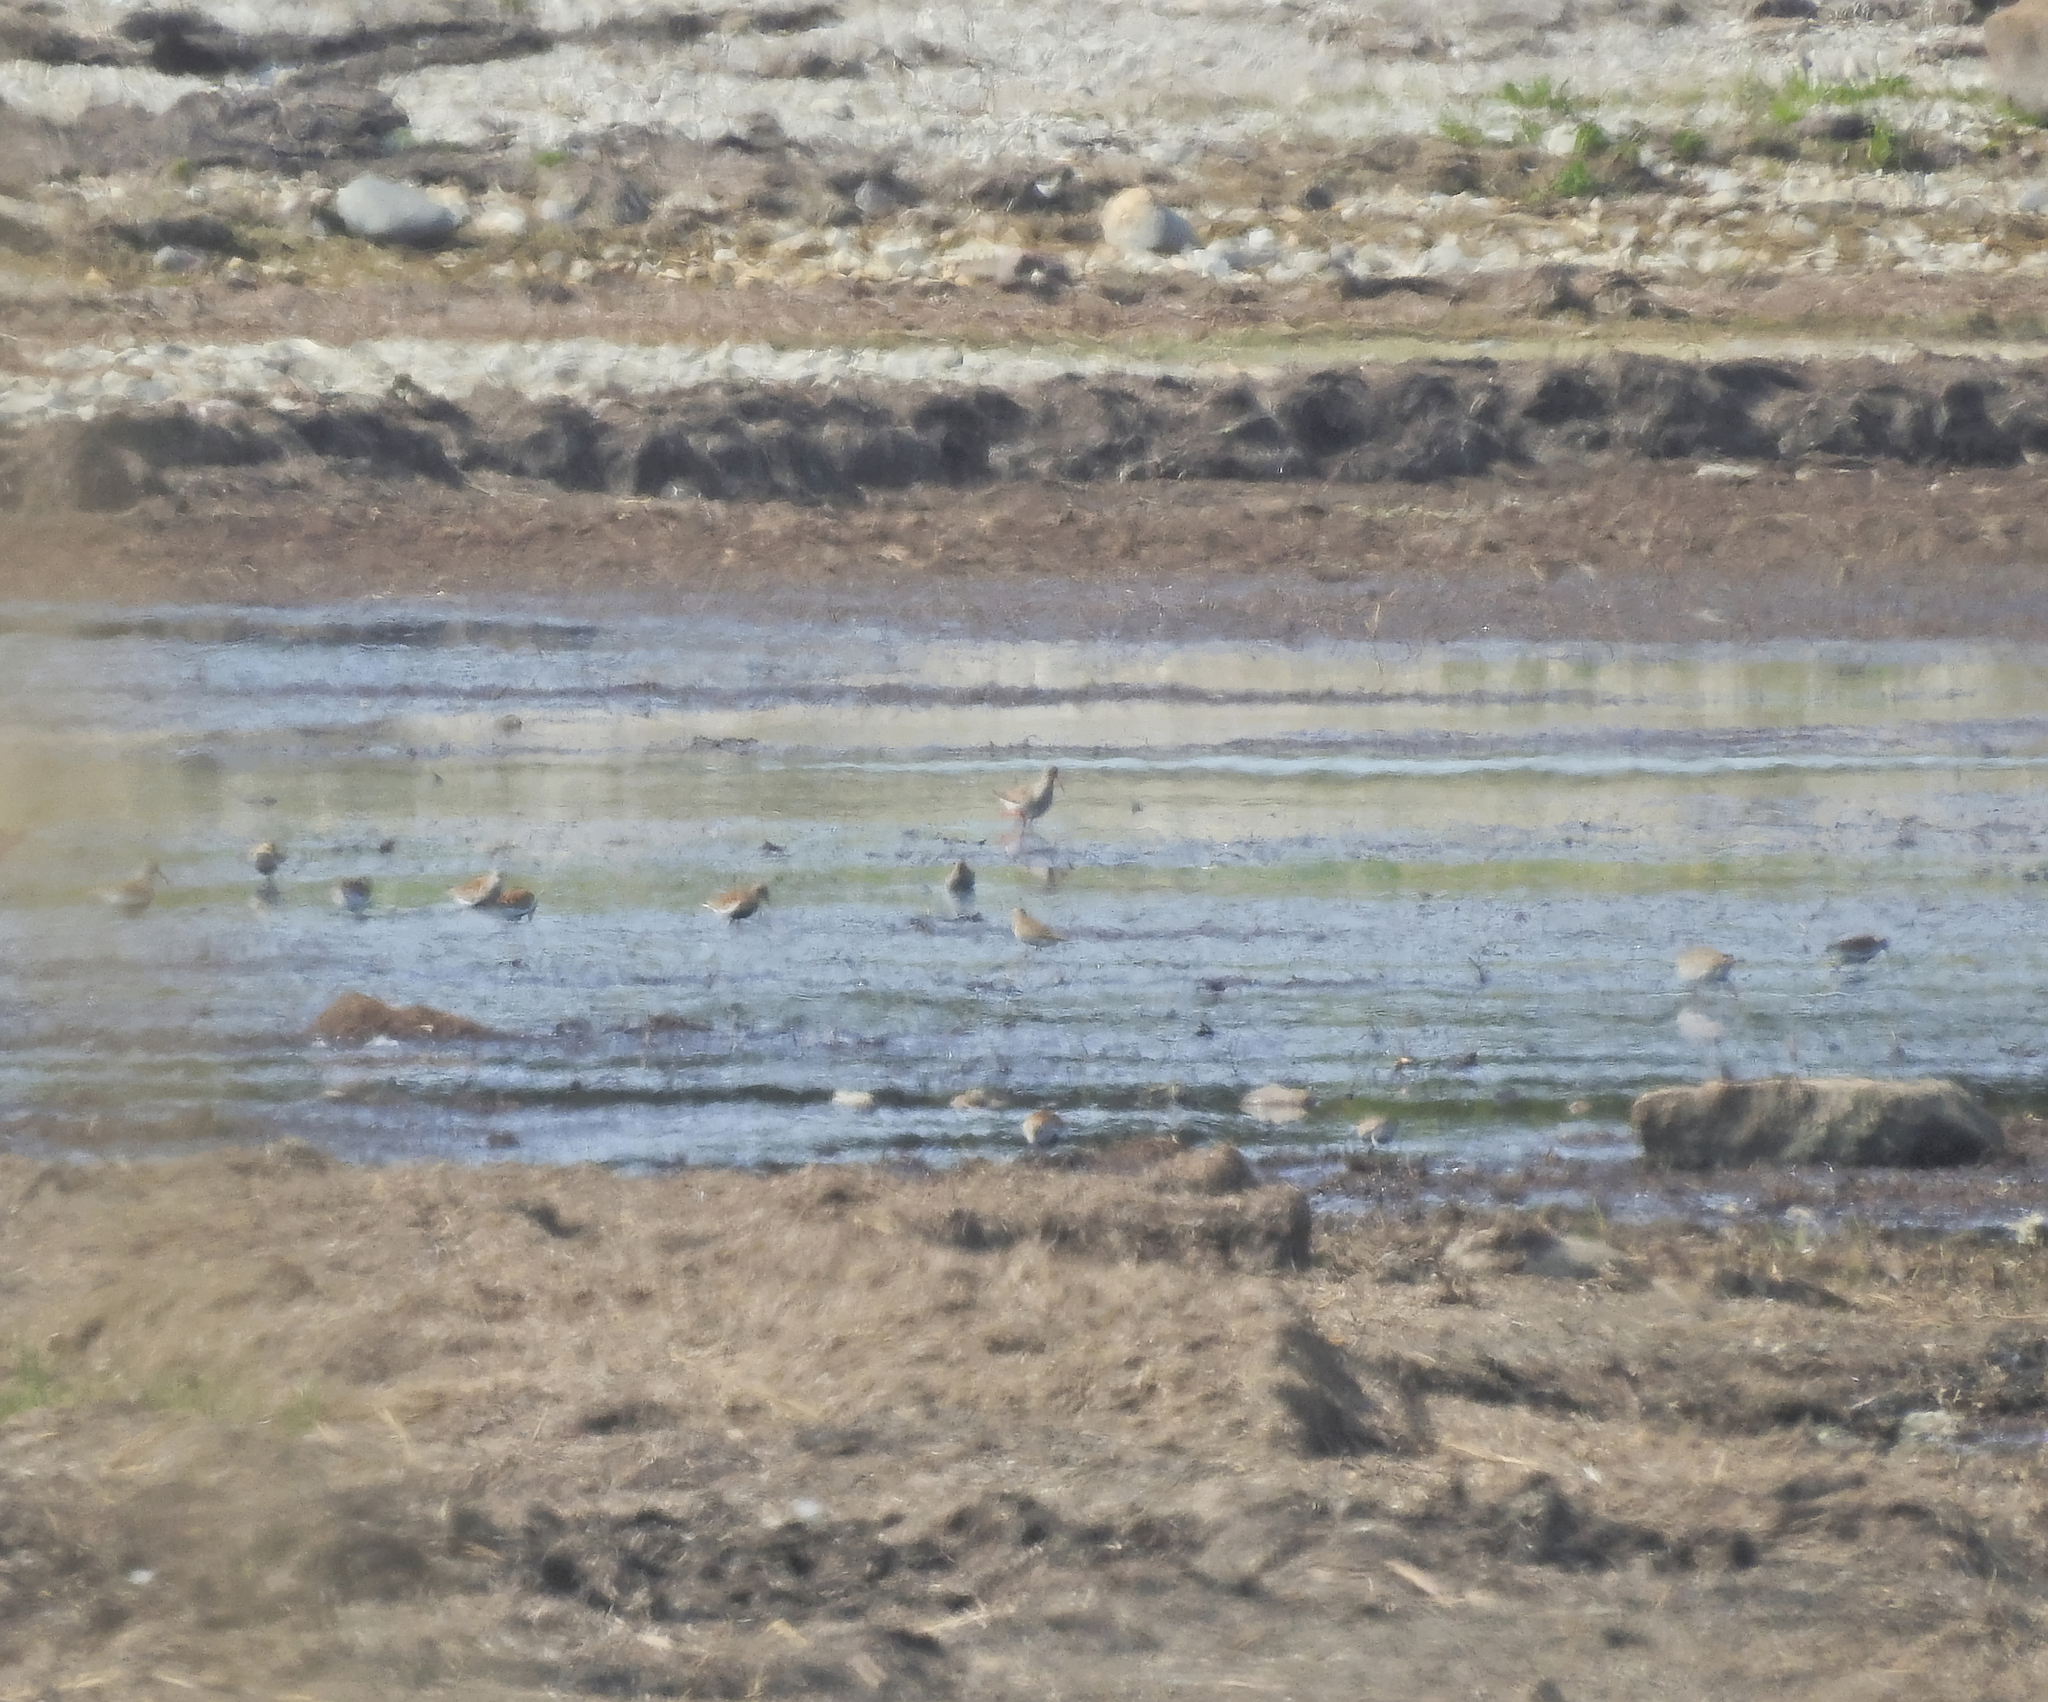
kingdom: Animalia
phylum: Chordata
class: Aves
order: Charadriiformes
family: Scolopacidae
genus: Calidris
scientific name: Calidris alpina
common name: Dunlin
